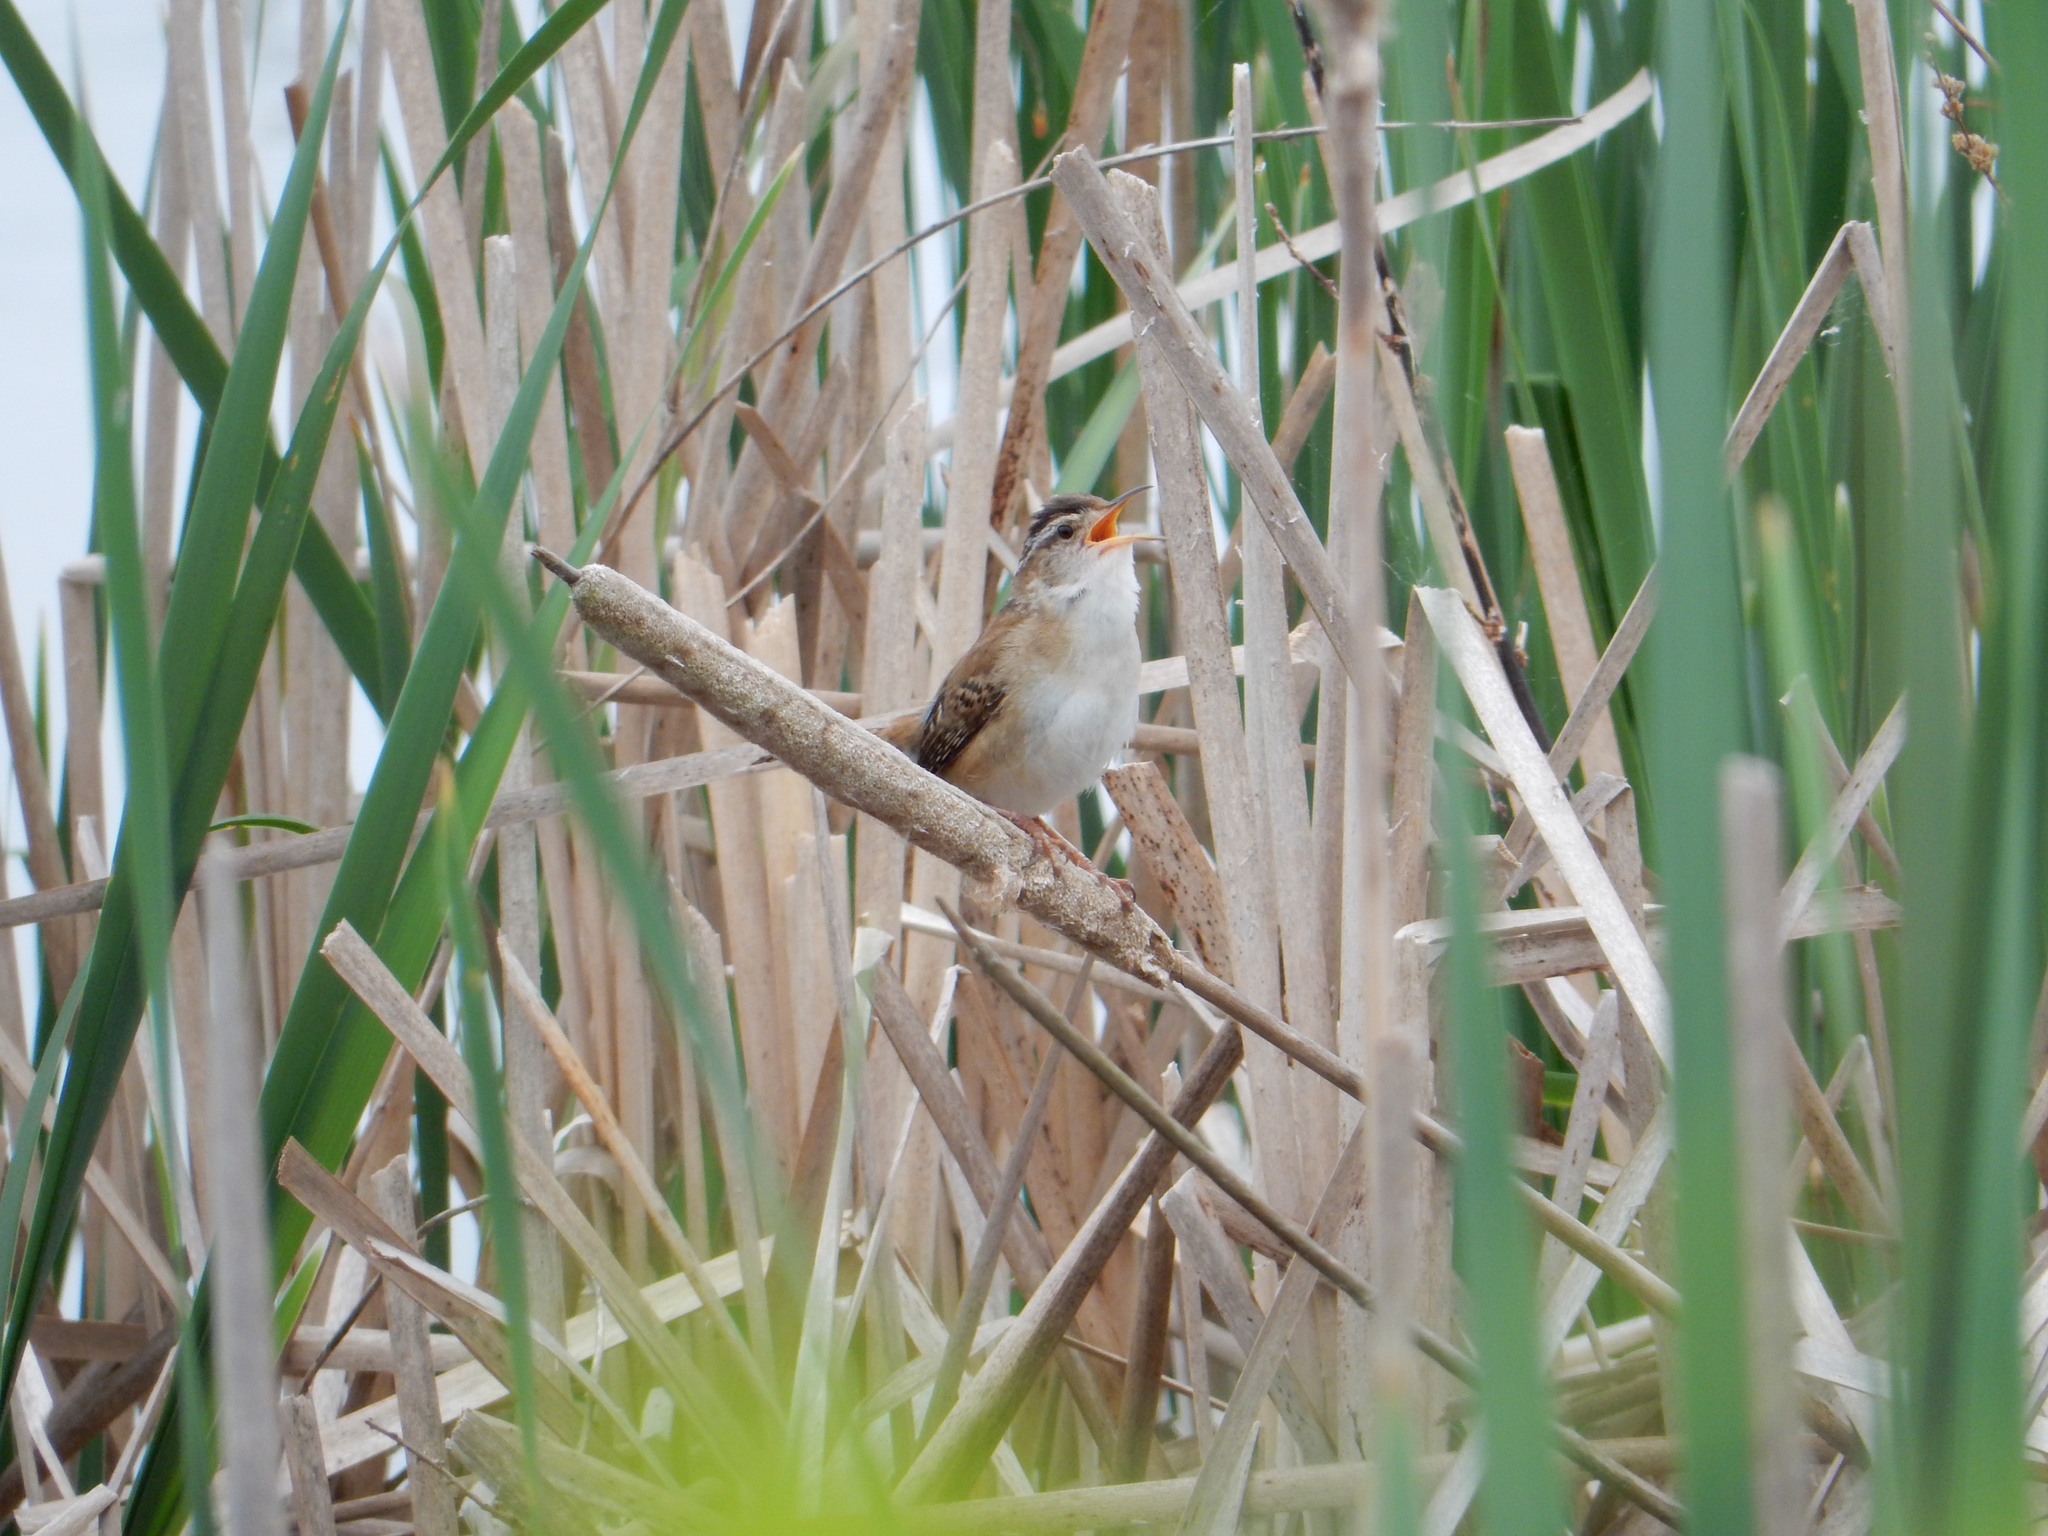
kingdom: Animalia
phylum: Chordata
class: Aves
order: Passeriformes
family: Troglodytidae
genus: Cistothorus
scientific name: Cistothorus palustris
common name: Marsh wren
